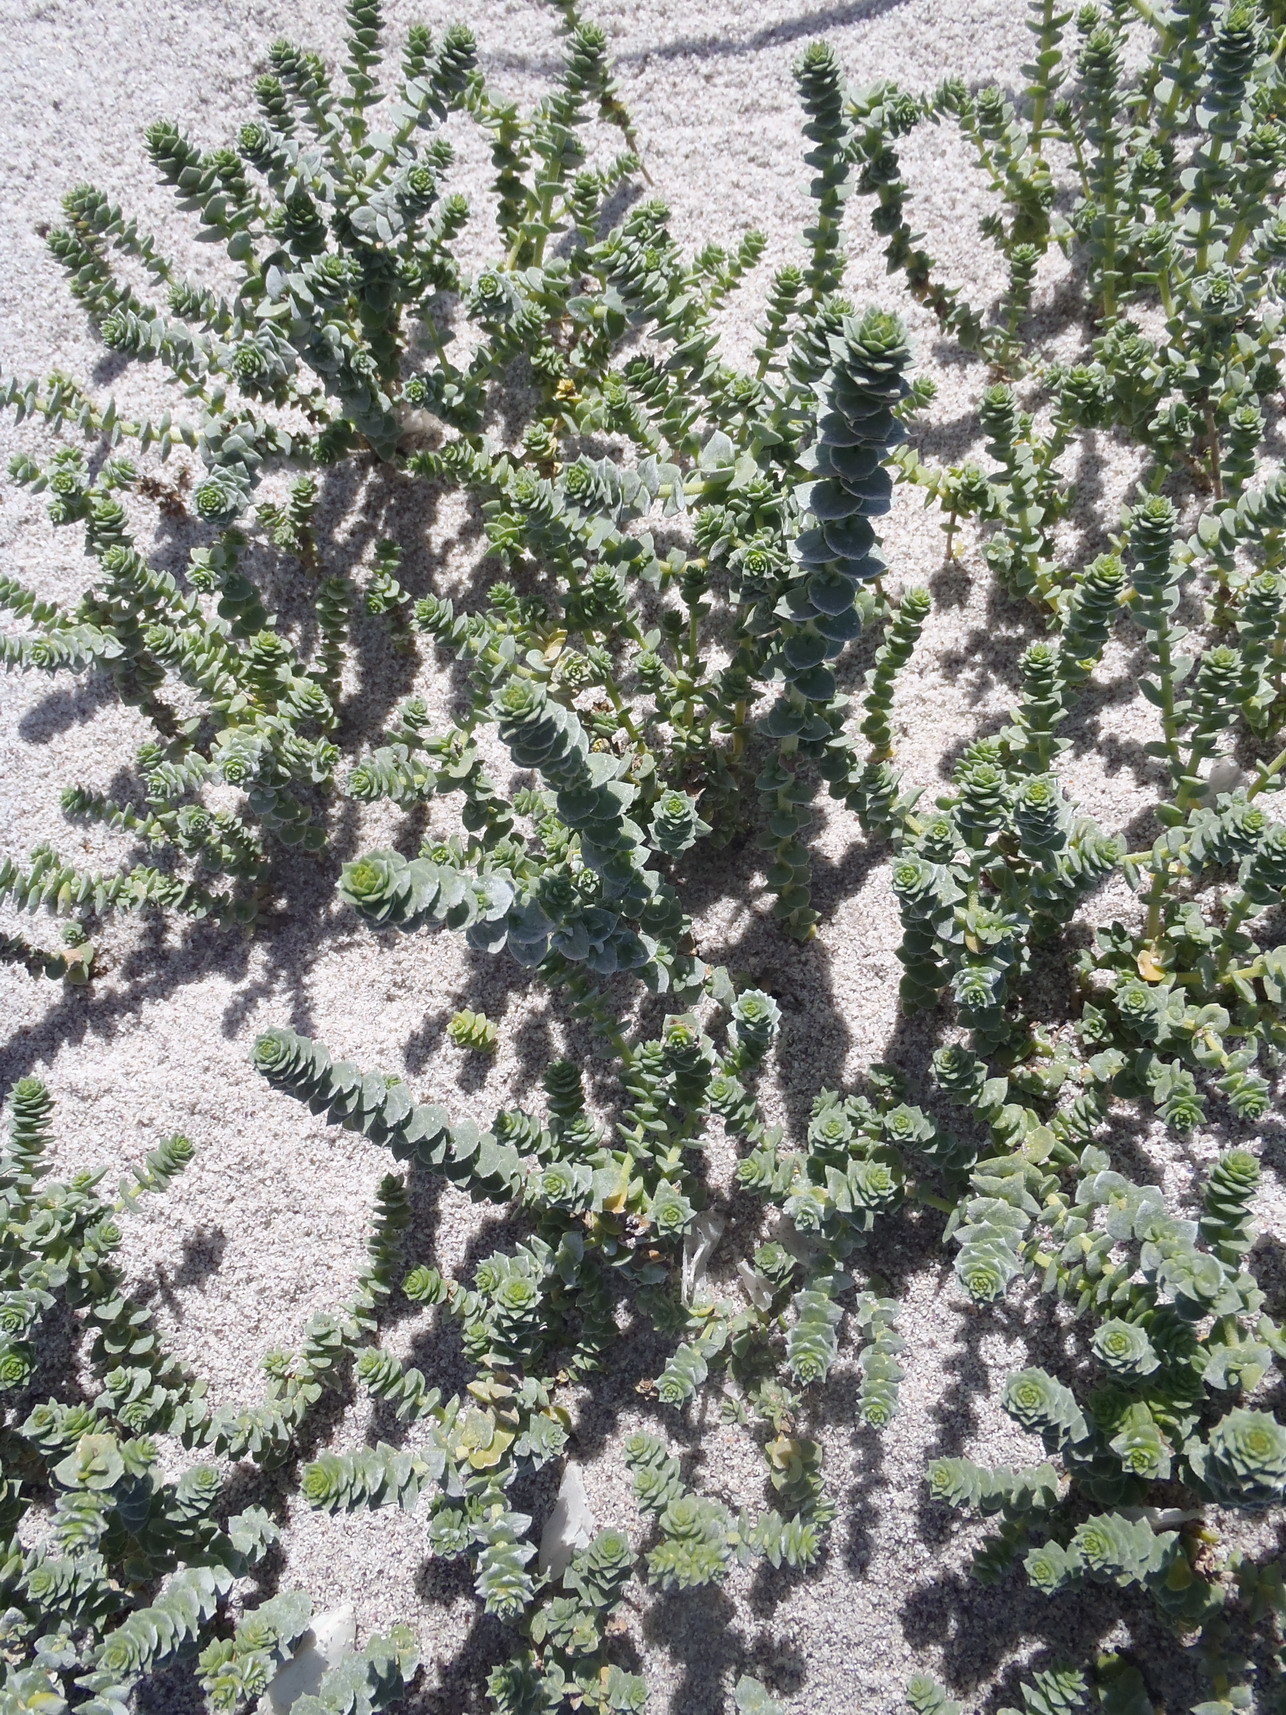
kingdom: Plantae
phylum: Tracheophyta
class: Magnoliopsida
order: Lamiales
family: Scrophulariaceae
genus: Hebenstretia
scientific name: Hebenstretia cordata
